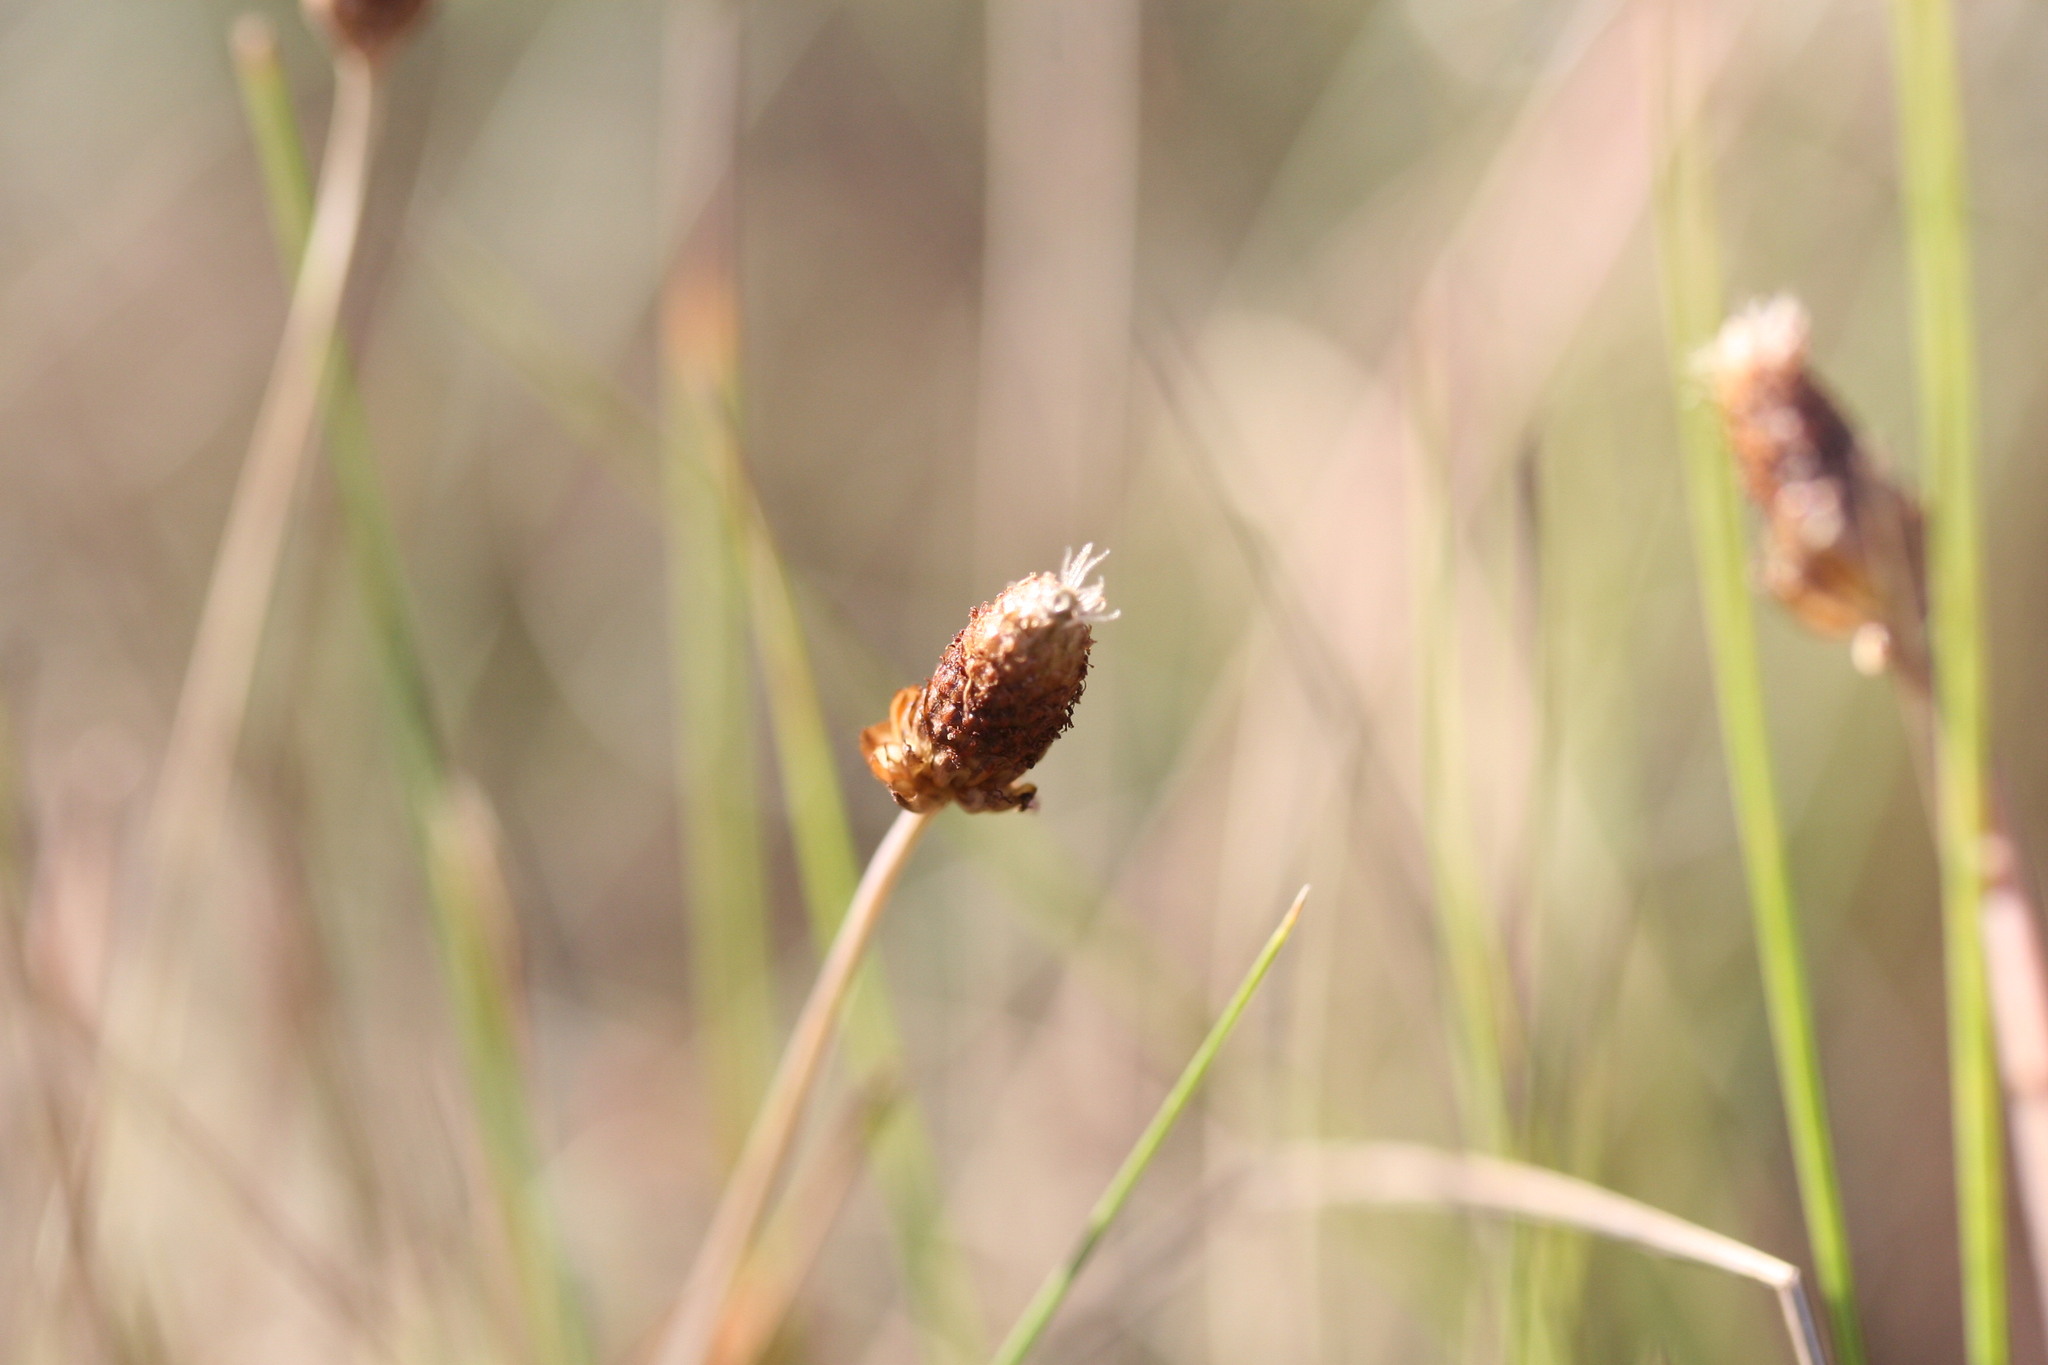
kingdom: Plantae
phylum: Tracheophyta
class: Liliopsida
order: Poales
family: Cyperaceae
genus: Fimbristylis
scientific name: Fimbristylis tetragona
